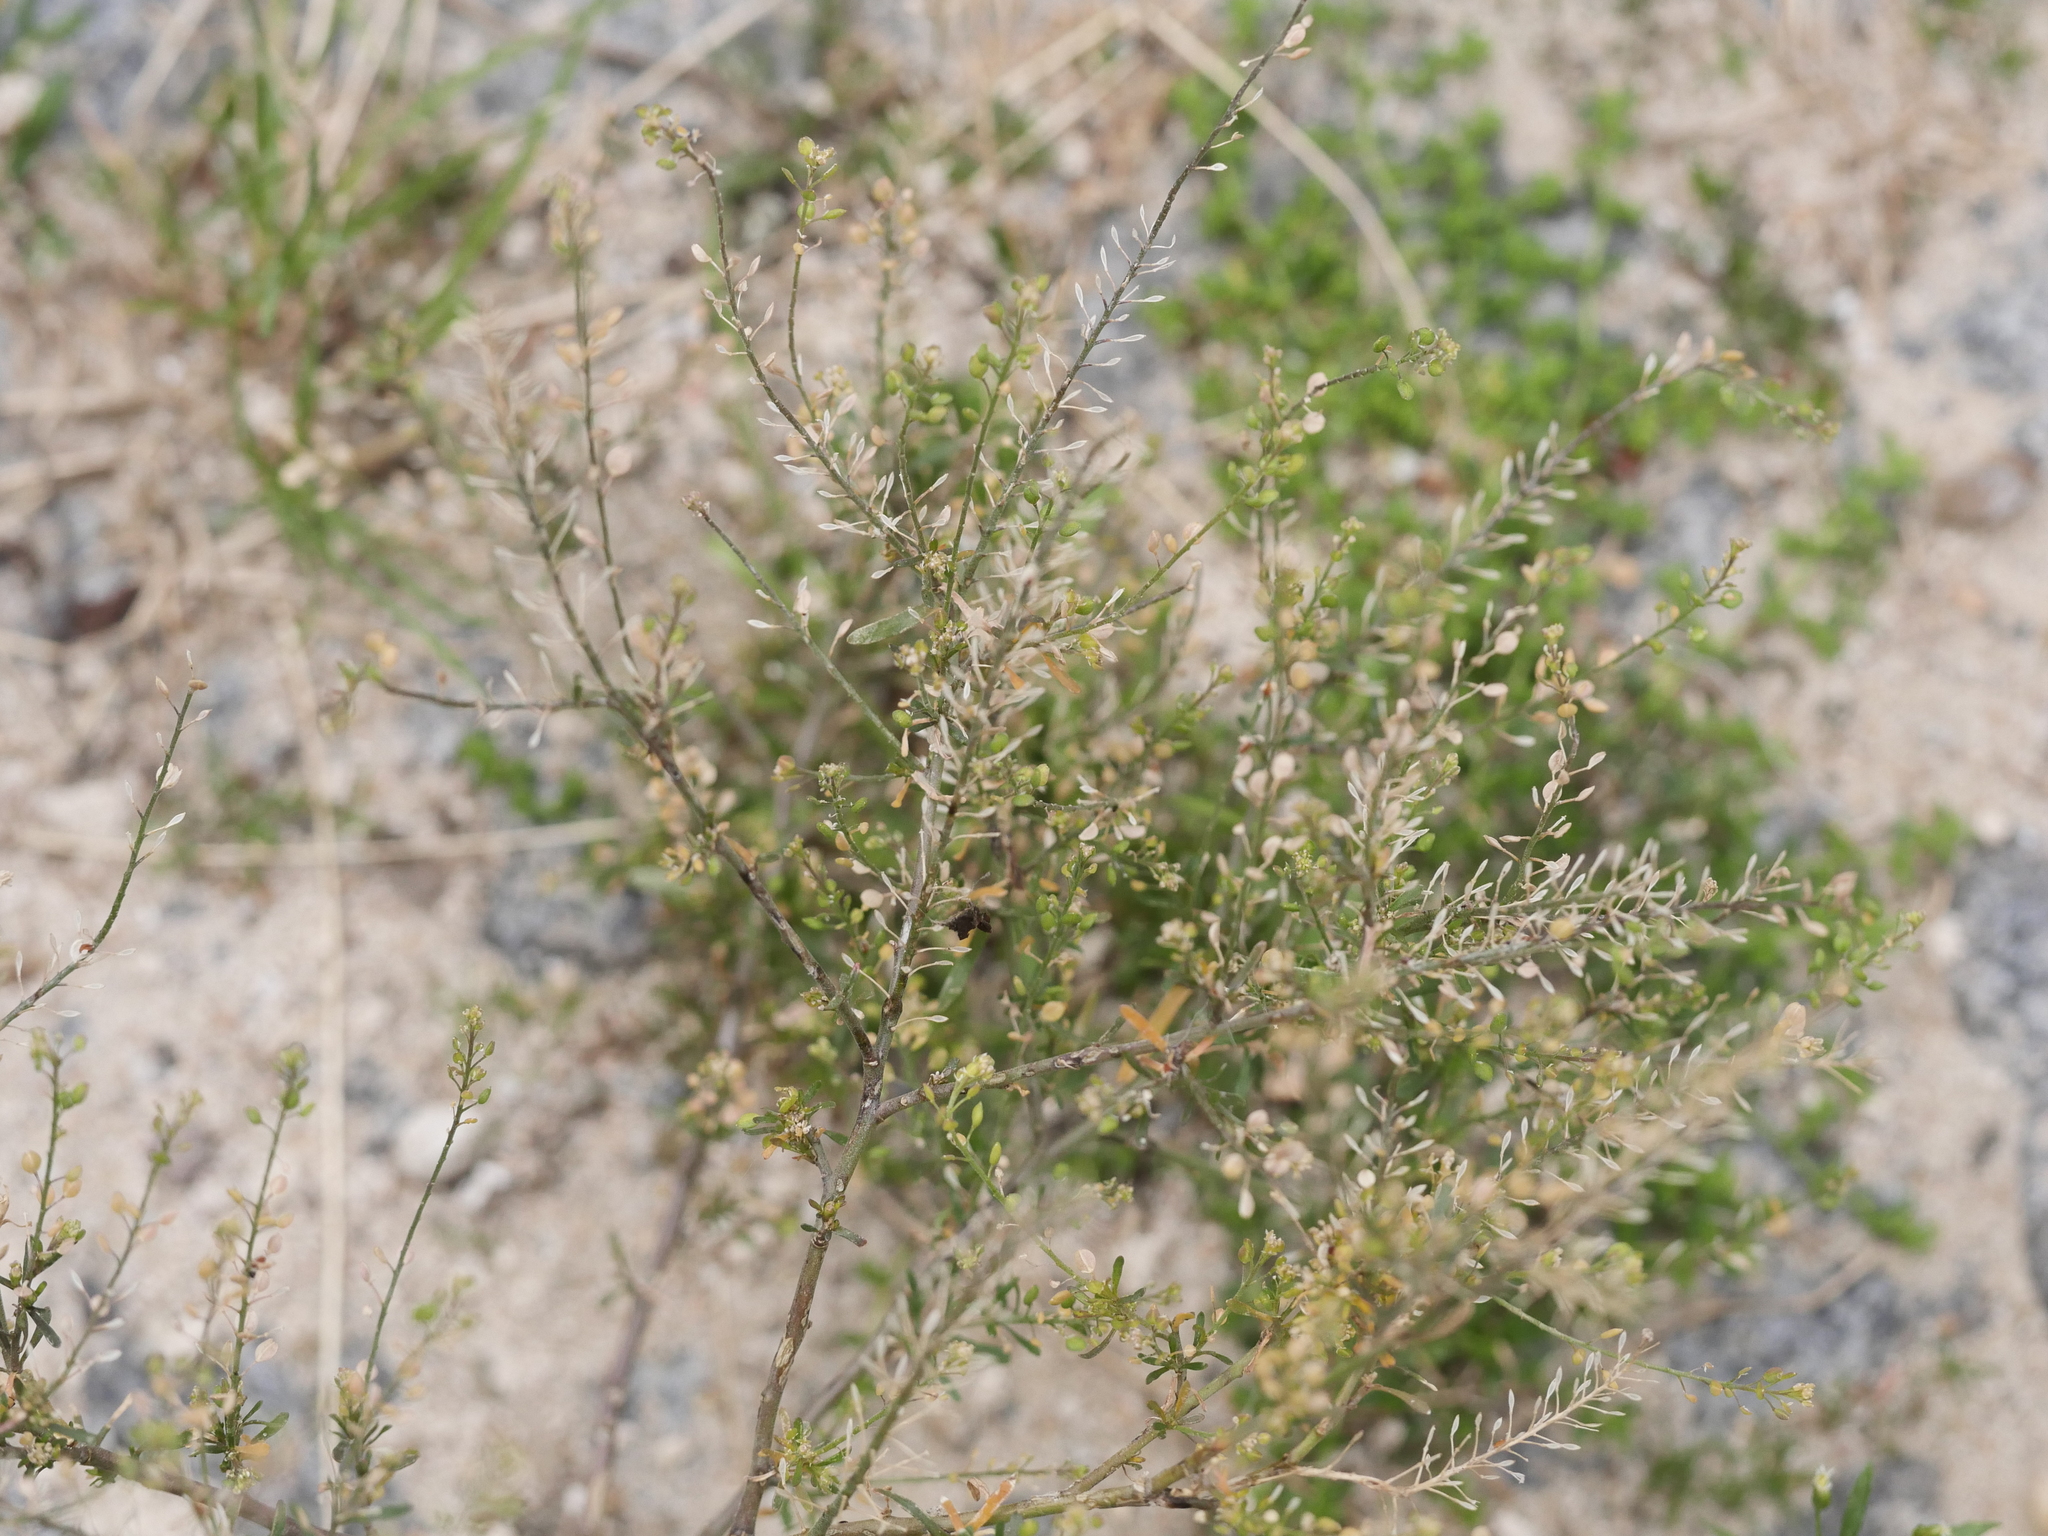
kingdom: Plantae
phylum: Tracheophyta
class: Magnoliopsida
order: Brassicales
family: Brassicaceae
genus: Lepidium
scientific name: Lepidium ruderale
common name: Narrow-leaved pepperwort
